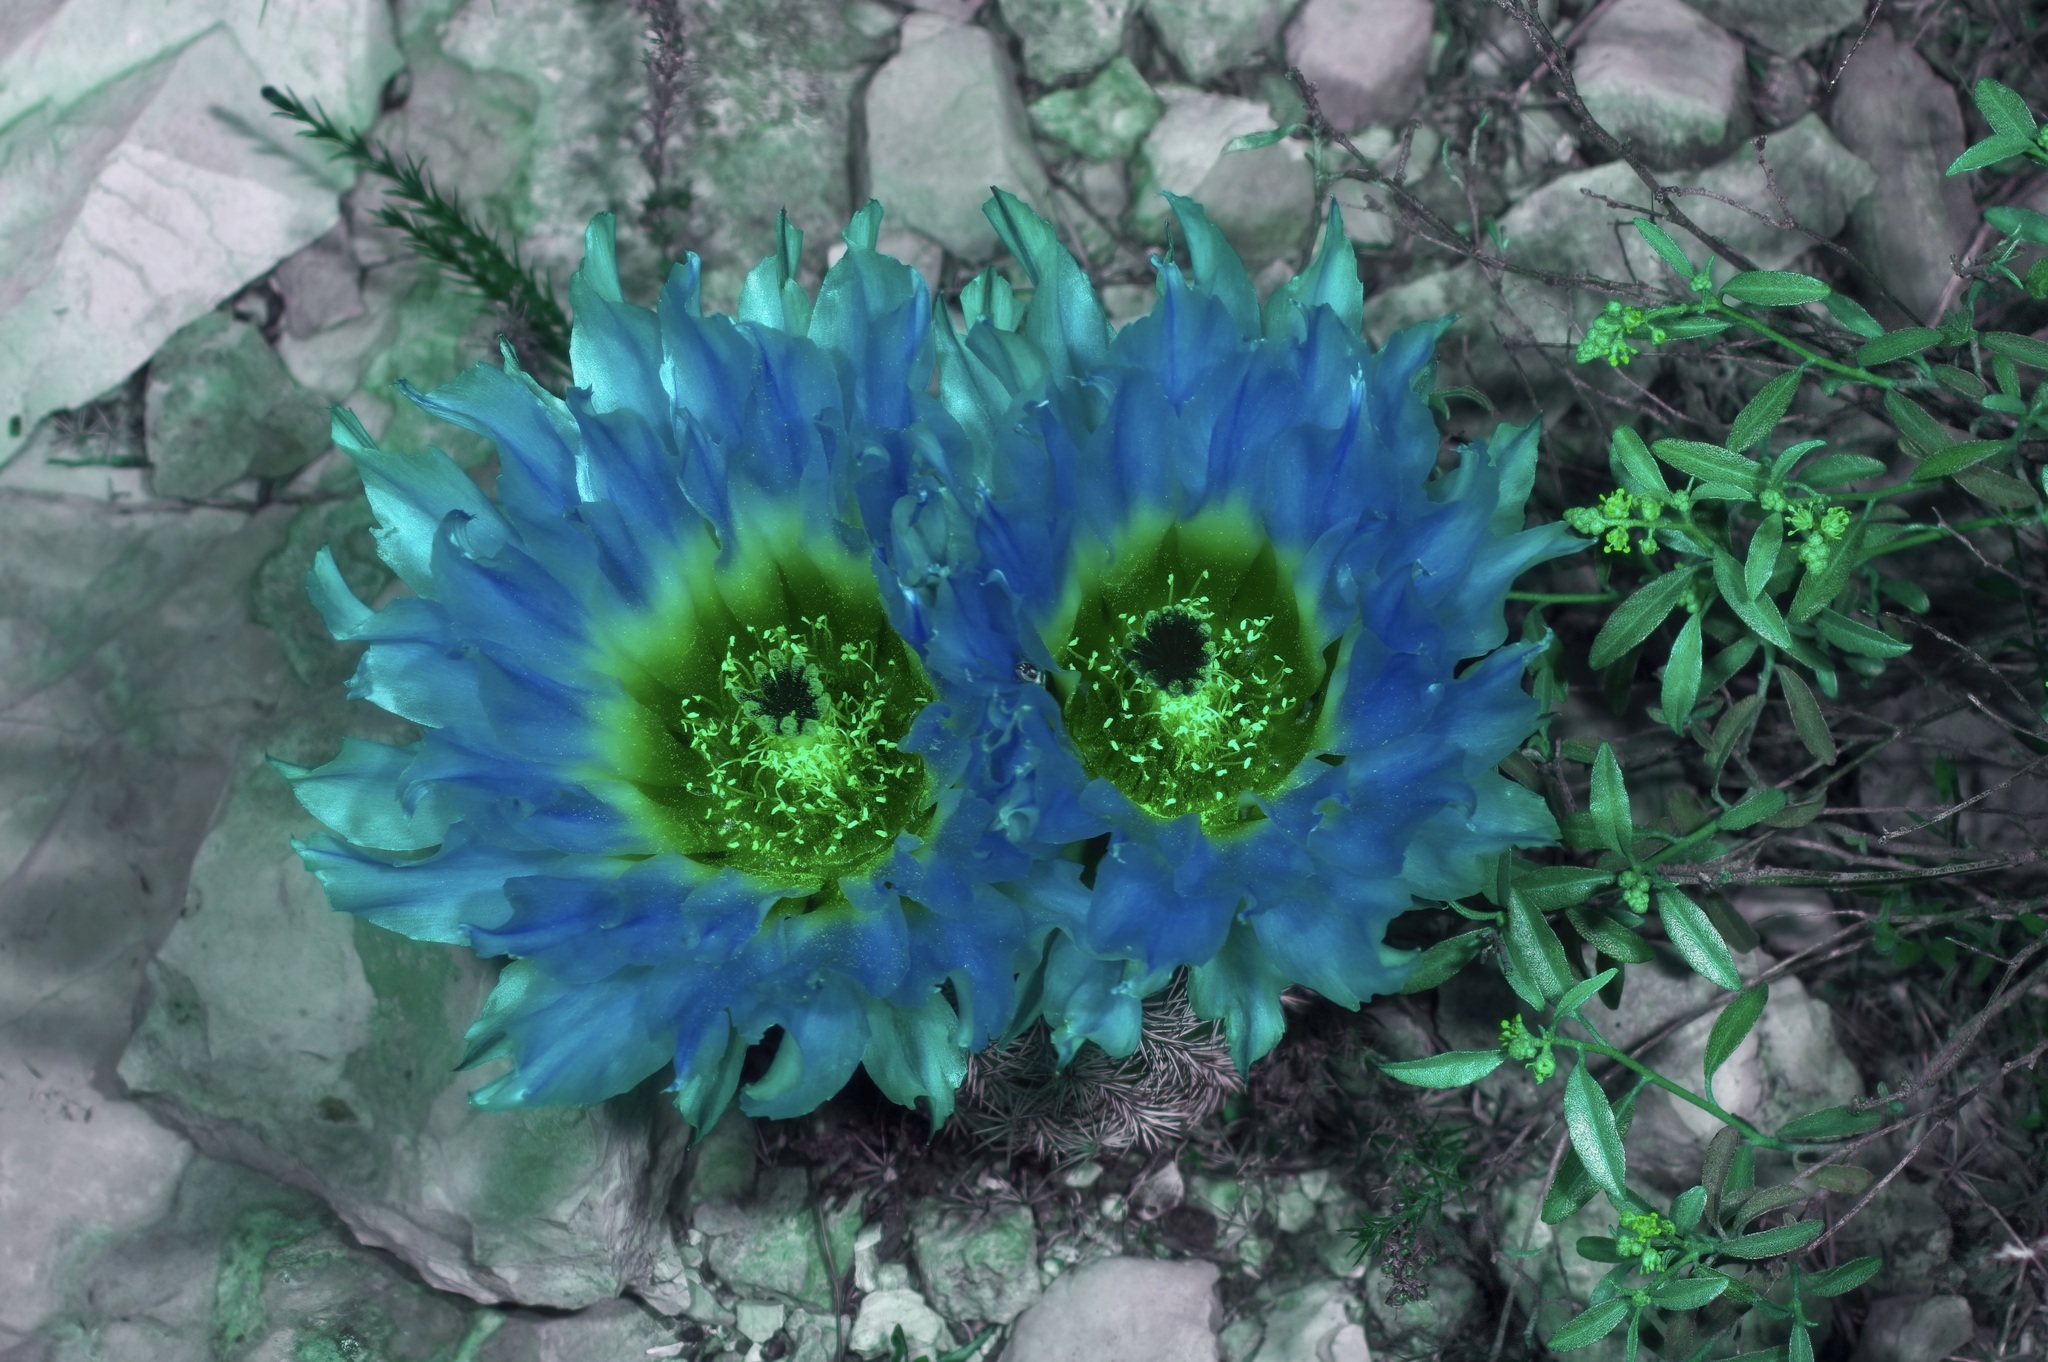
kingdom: Plantae
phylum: Tracheophyta
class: Magnoliopsida
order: Caryophyllales
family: Cactaceae
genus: Echinocereus
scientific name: Echinocereus pectinatus
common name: Rainbow cactus
